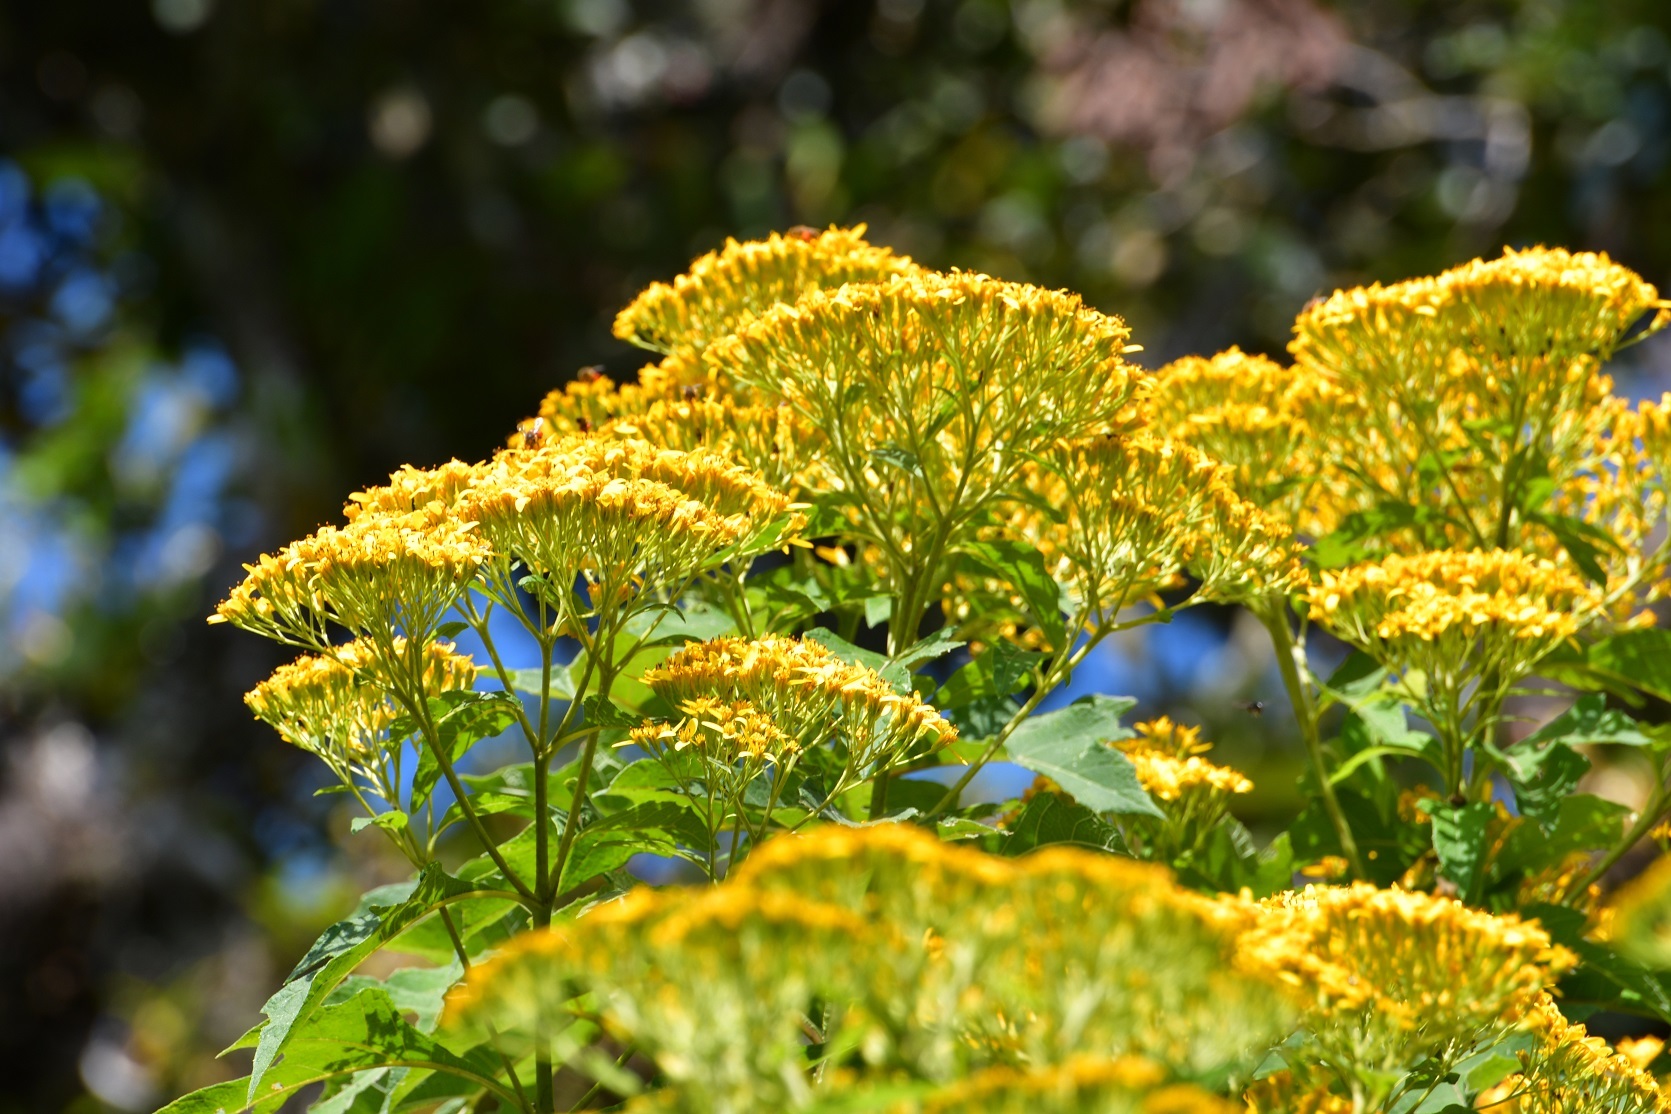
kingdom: Plantae
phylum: Tracheophyta
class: Magnoliopsida
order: Asterales
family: Asteraceae
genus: Verbesina
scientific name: Verbesina breedlovei
